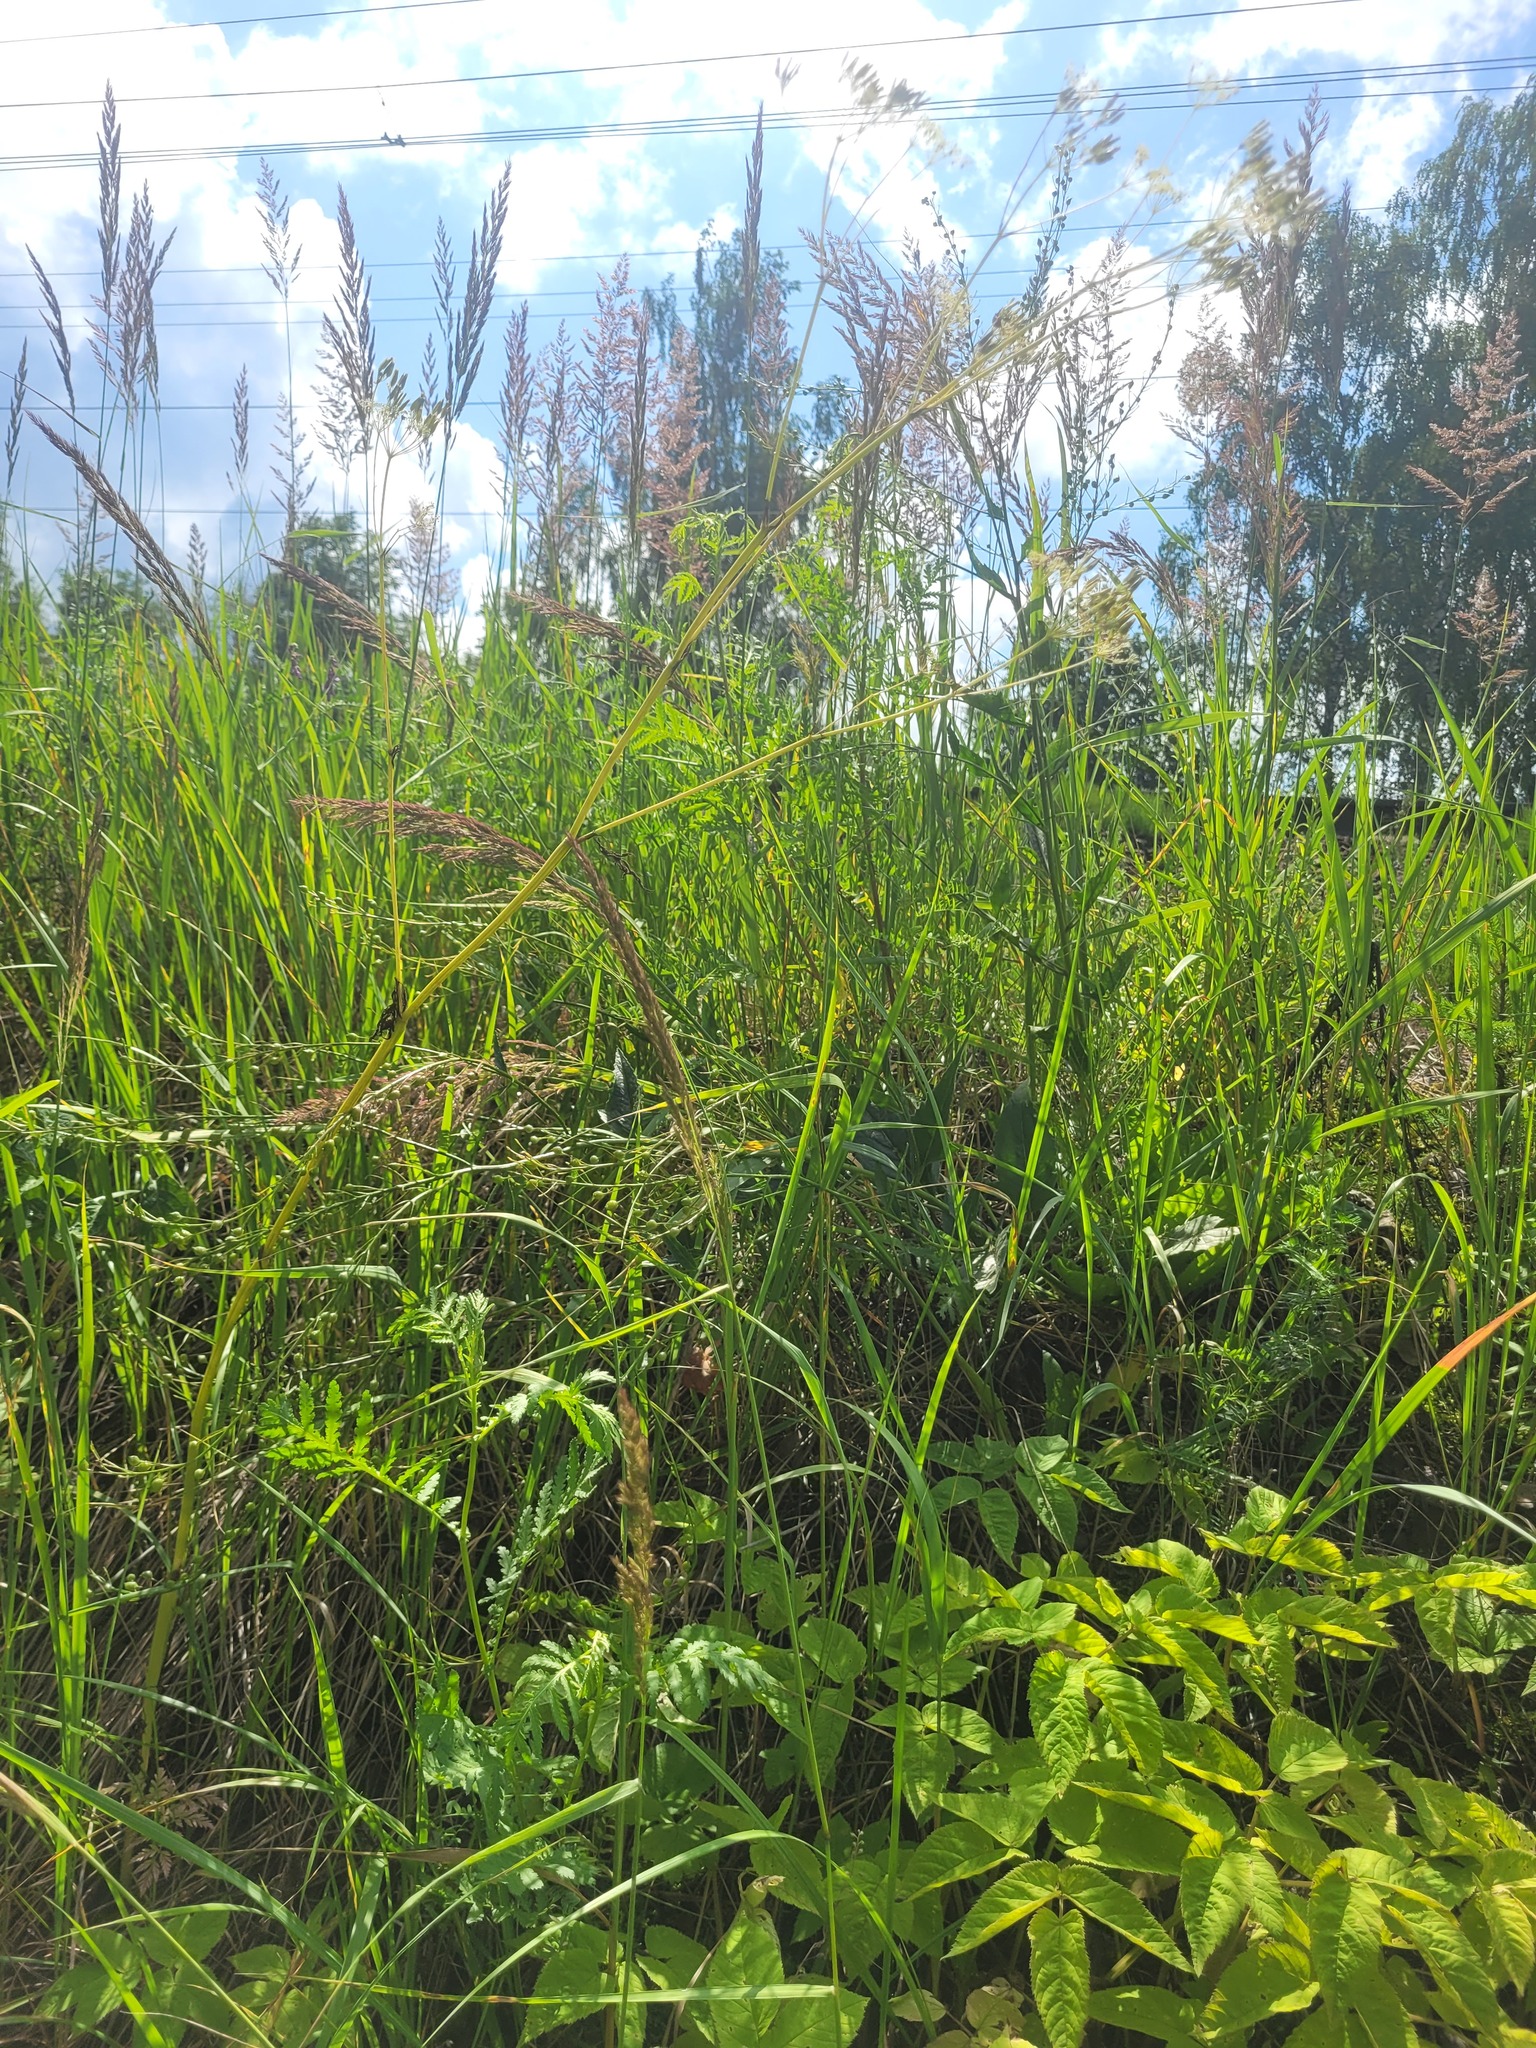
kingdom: Plantae
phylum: Tracheophyta
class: Magnoliopsida
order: Apiales
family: Apiaceae
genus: Anthriscus
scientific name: Anthriscus sylvestris
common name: Cow parsley
